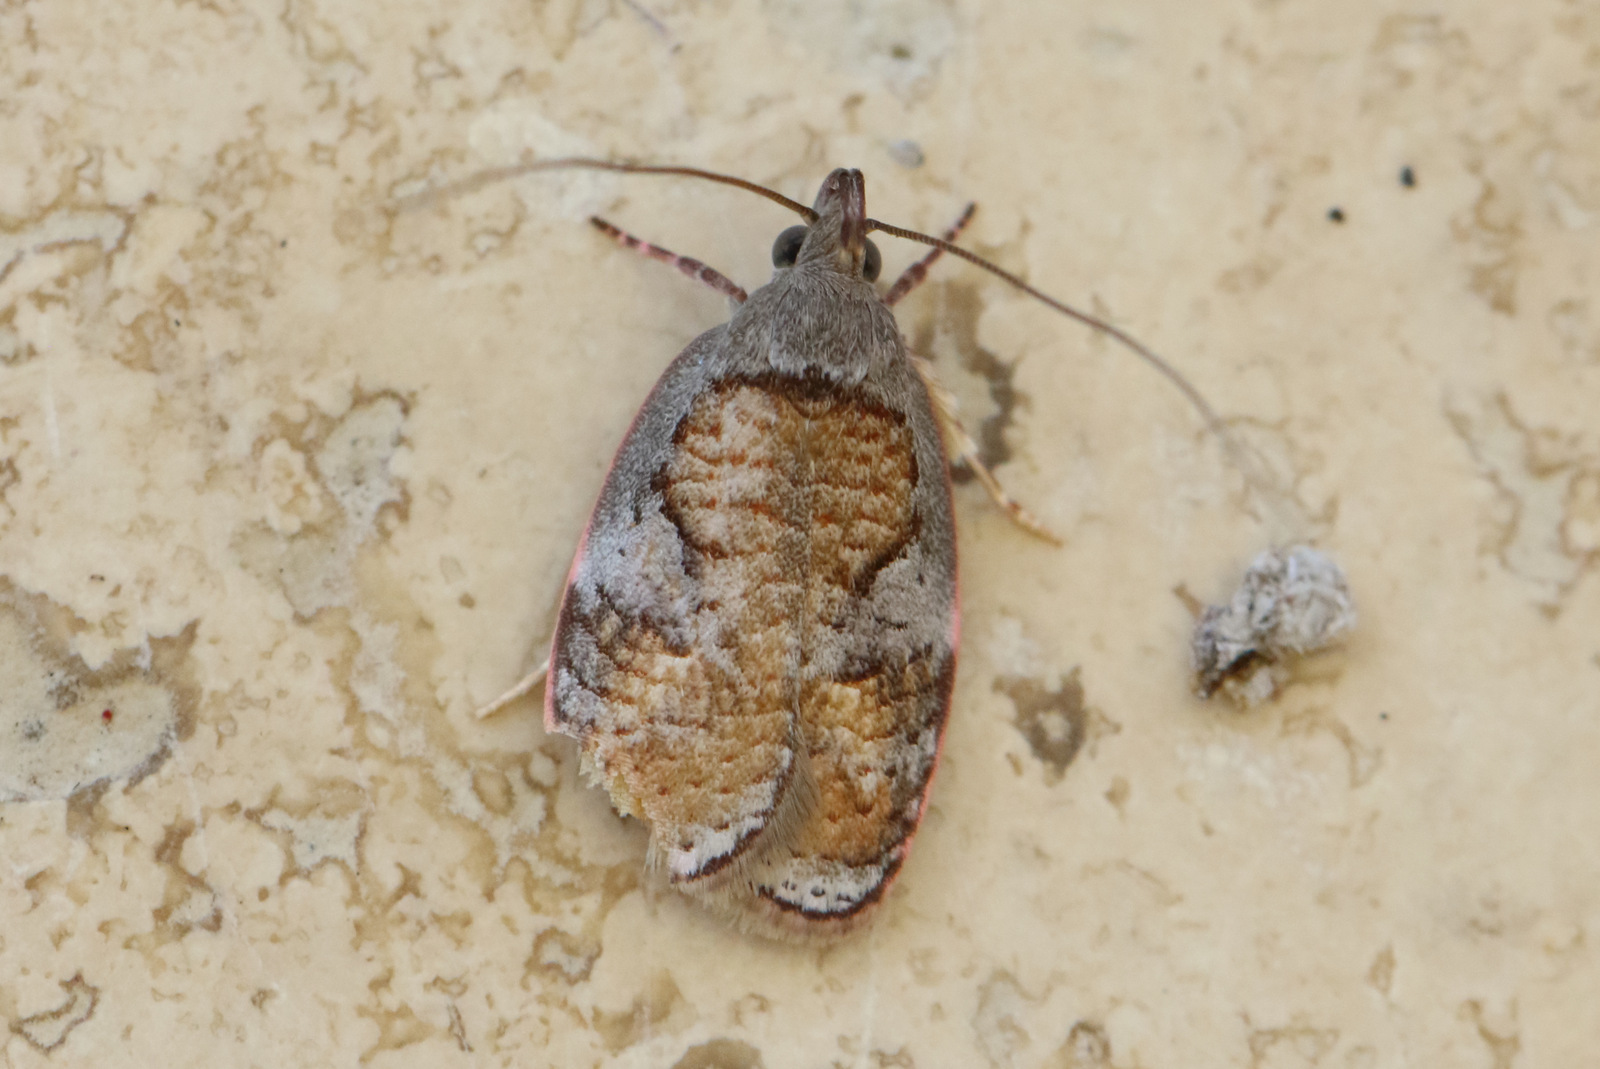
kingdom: Animalia
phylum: Arthropoda
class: Insecta
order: Lepidoptera
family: Depressariidae
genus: Peritornenta
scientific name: Peritornenta circulatella
